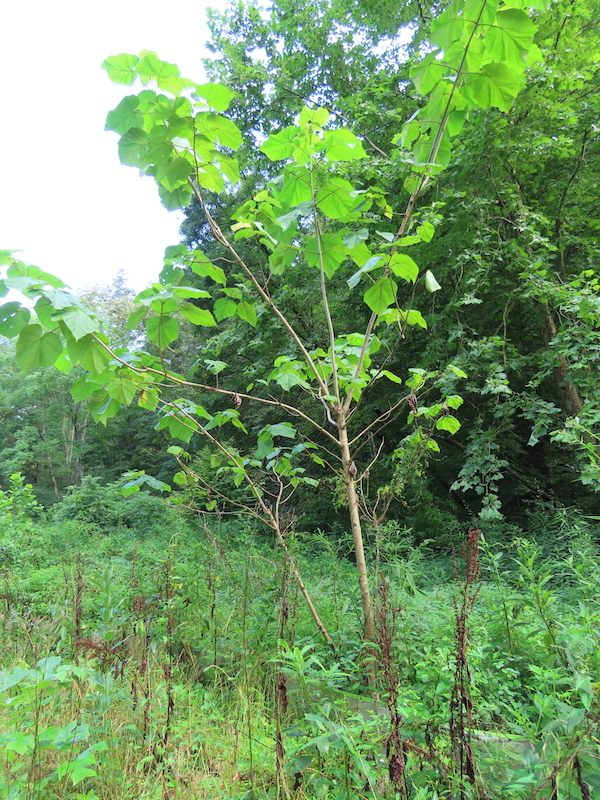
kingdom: Plantae
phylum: Tracheophyta
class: Magnoliopsida
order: Lamiales
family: Paulowniaceae
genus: Paulownia
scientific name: Paulownia tomentosa
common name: Foxglove-tree
